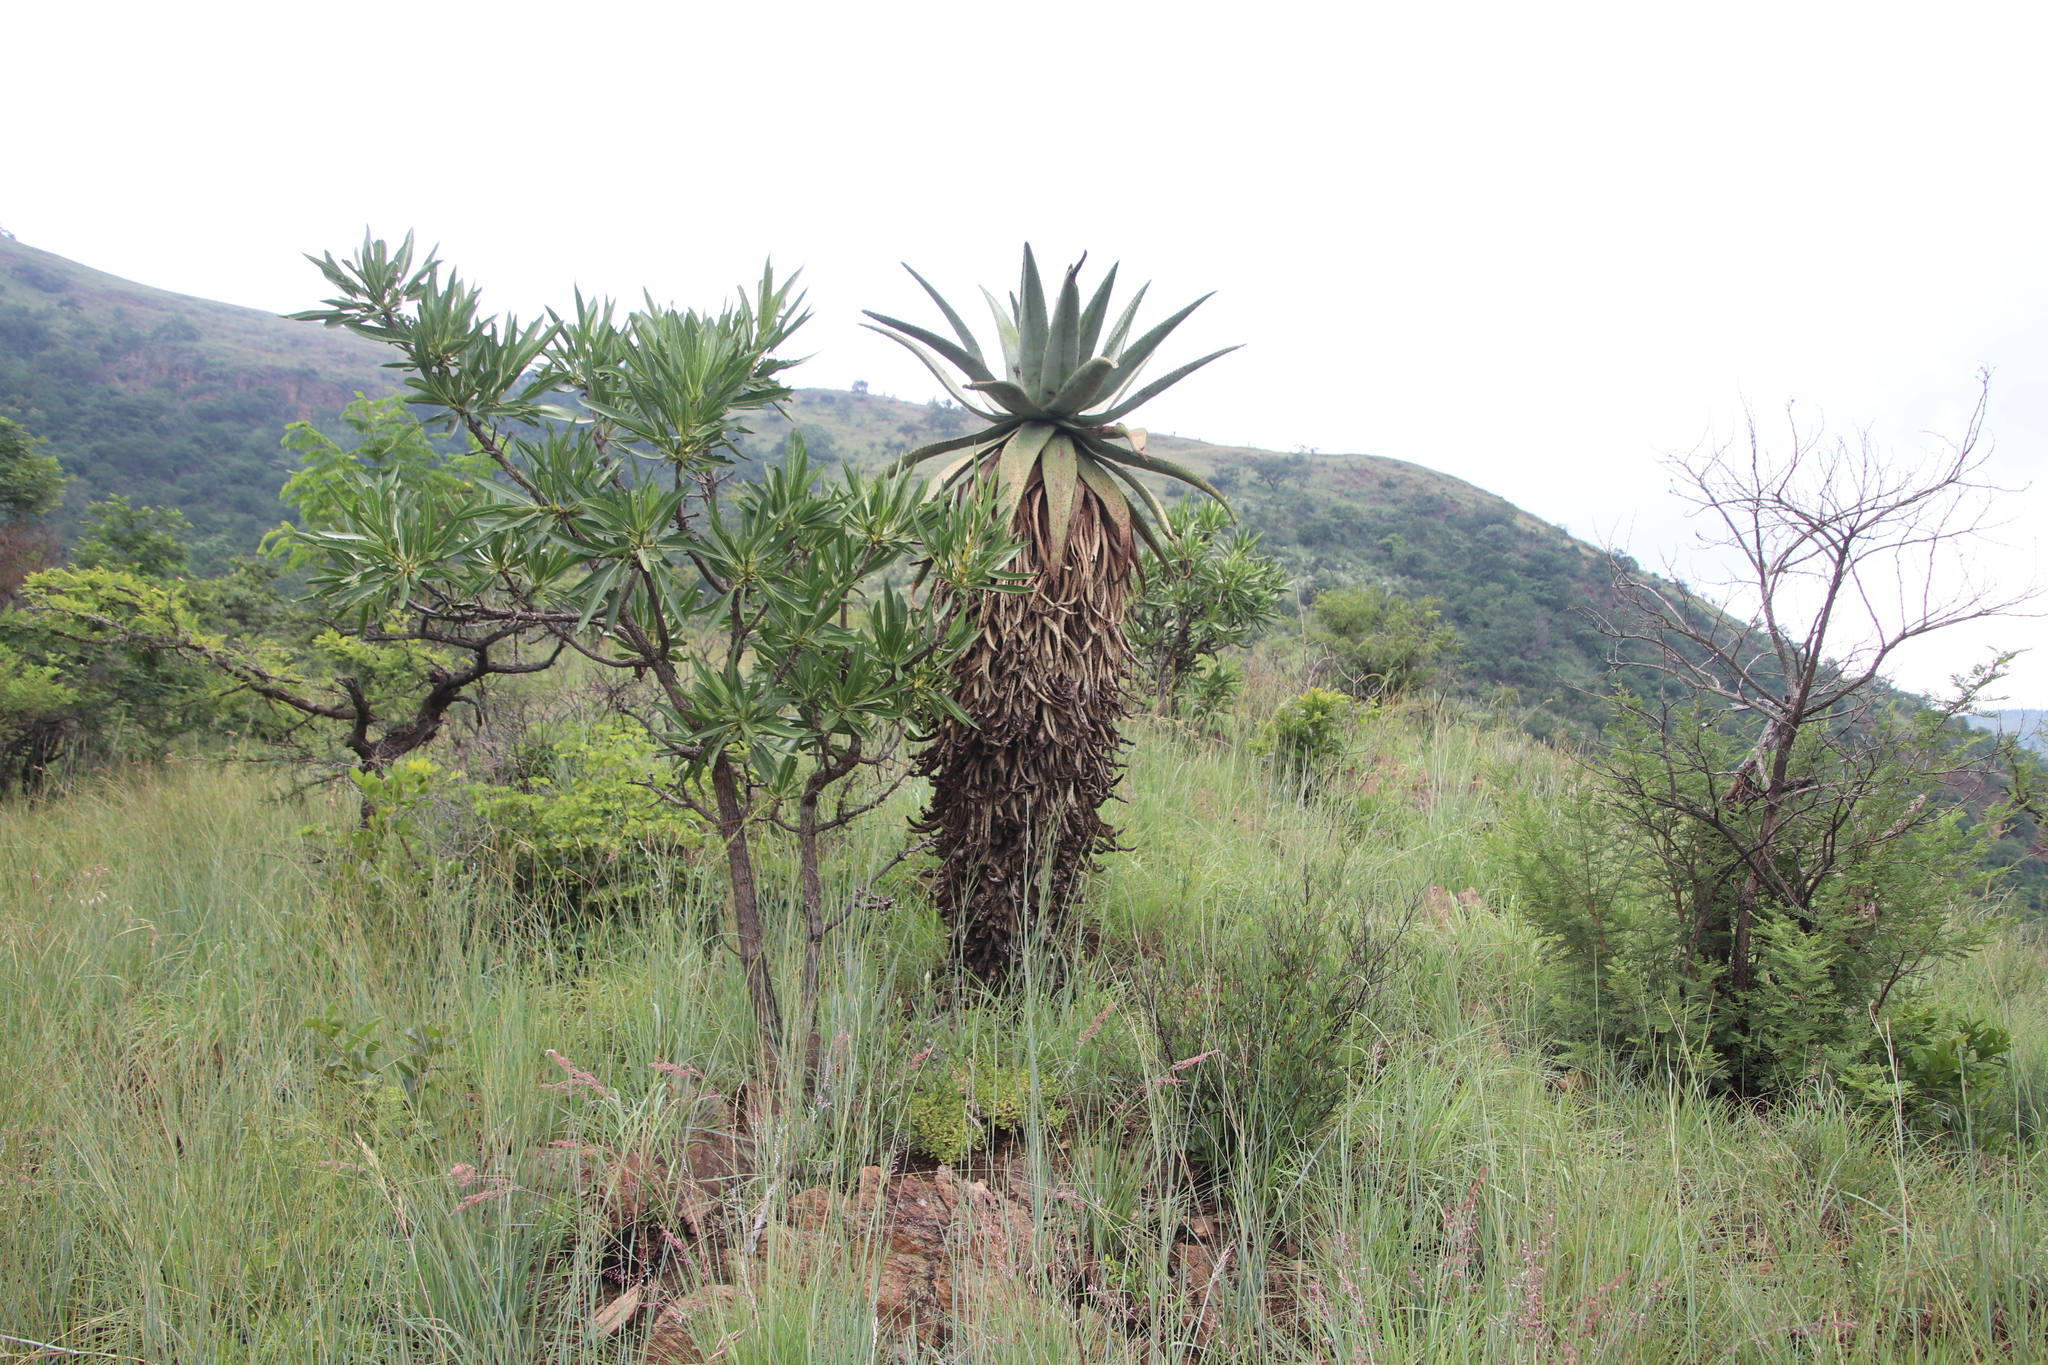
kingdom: Plantae
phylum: Tracheophyta
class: Liliopsida
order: Asparagales
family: Asphodelaceae
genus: Aloe
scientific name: Aloe marlothii
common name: Flat-flowered aloe
